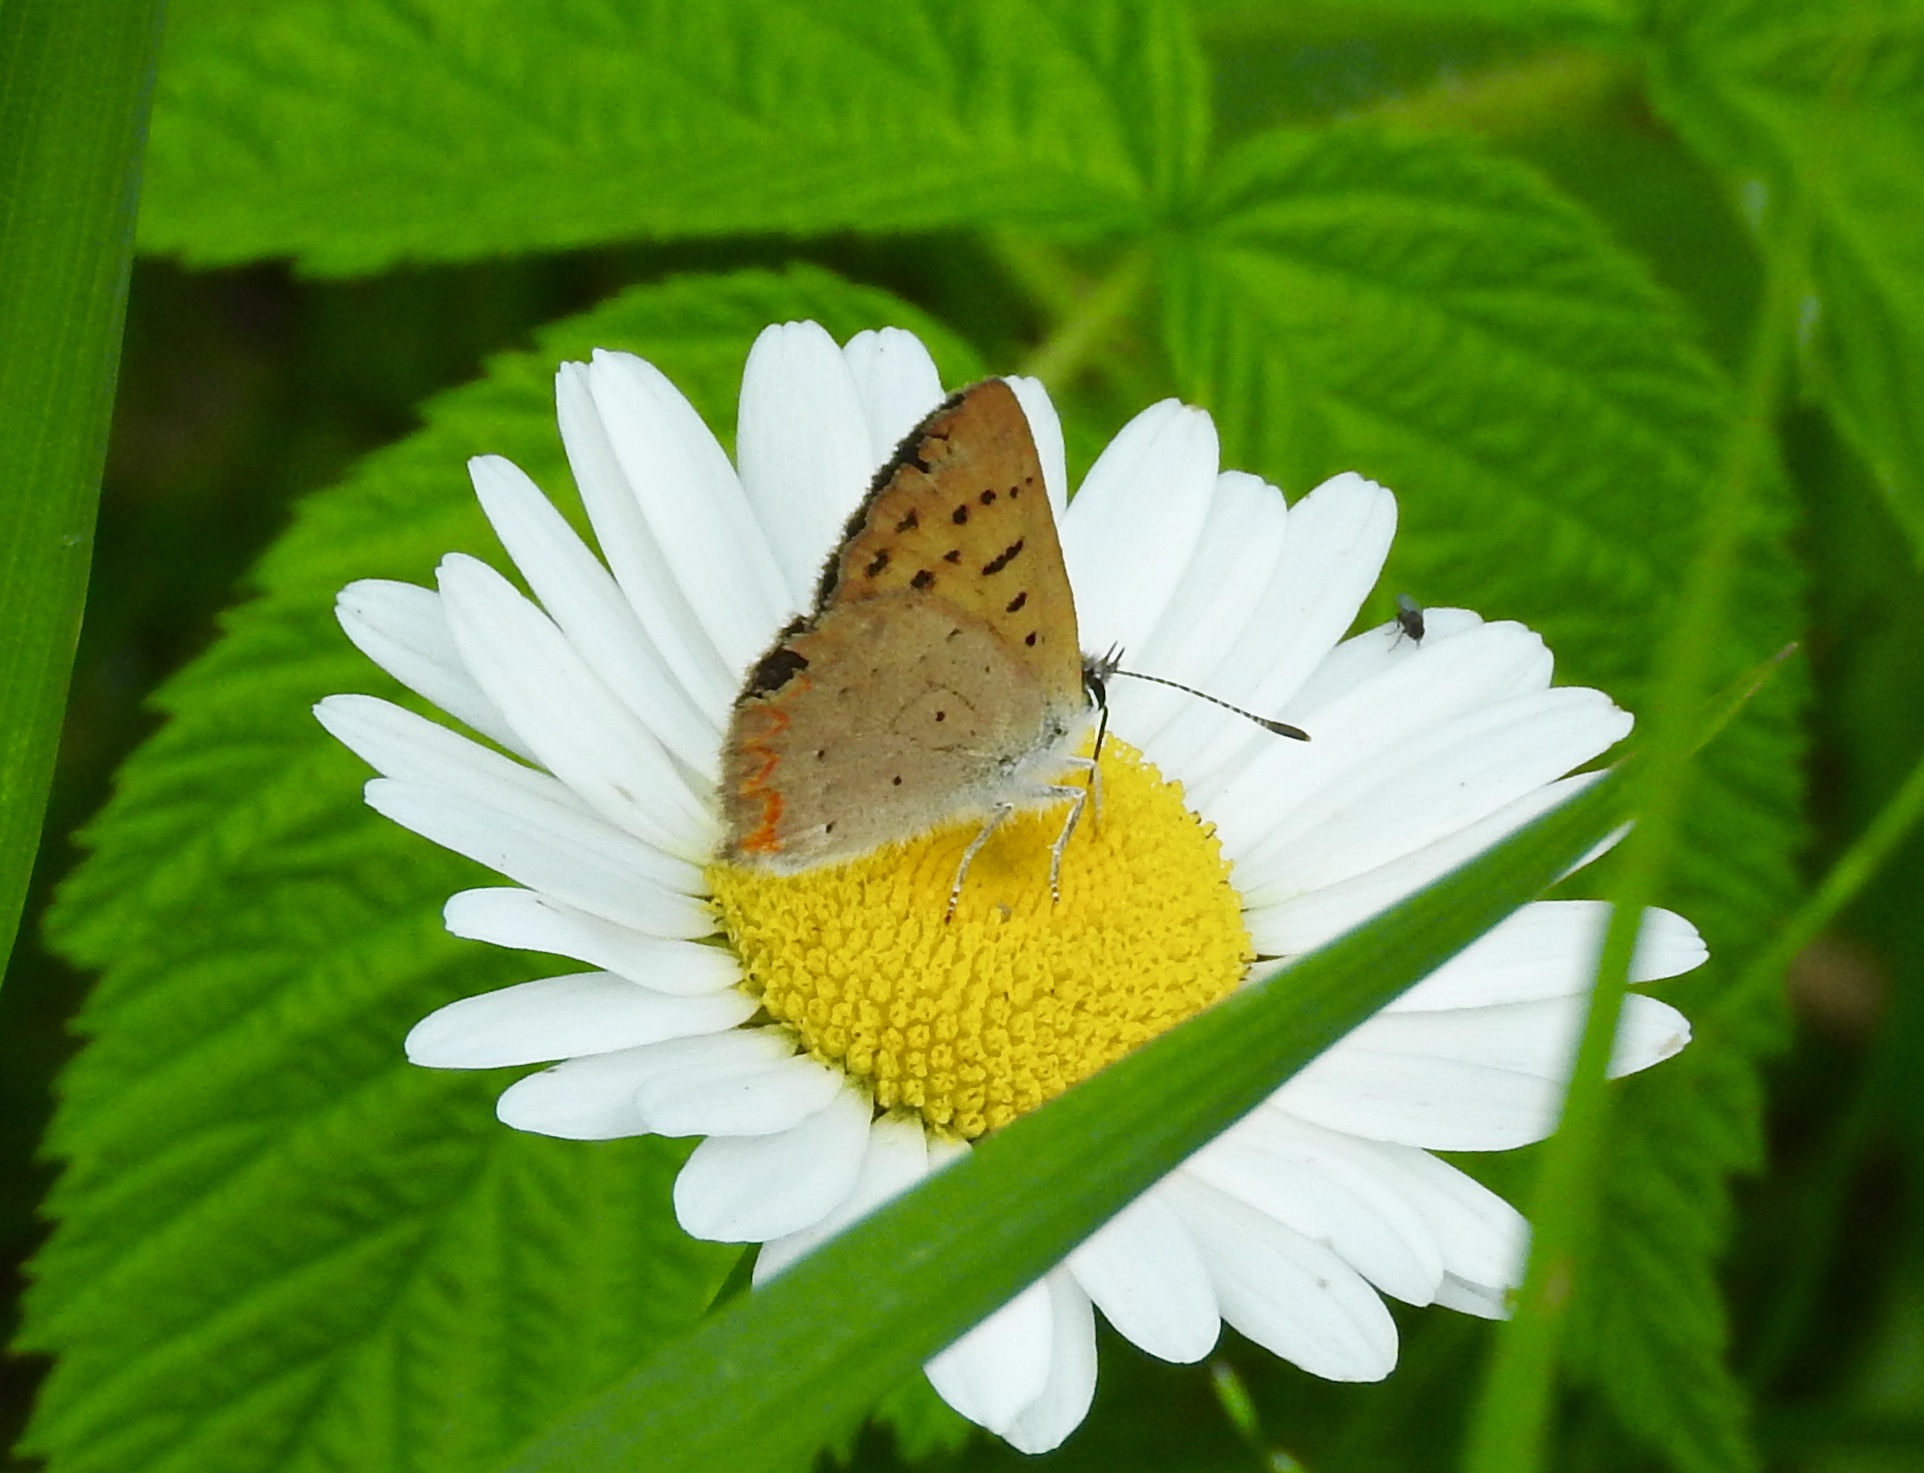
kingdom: Animalia
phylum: Arthropoda
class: Insecta
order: Lepidoptera
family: Lycaenidae
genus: Tharsalea
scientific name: Tharsalea epixanthe
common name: Bog copper
